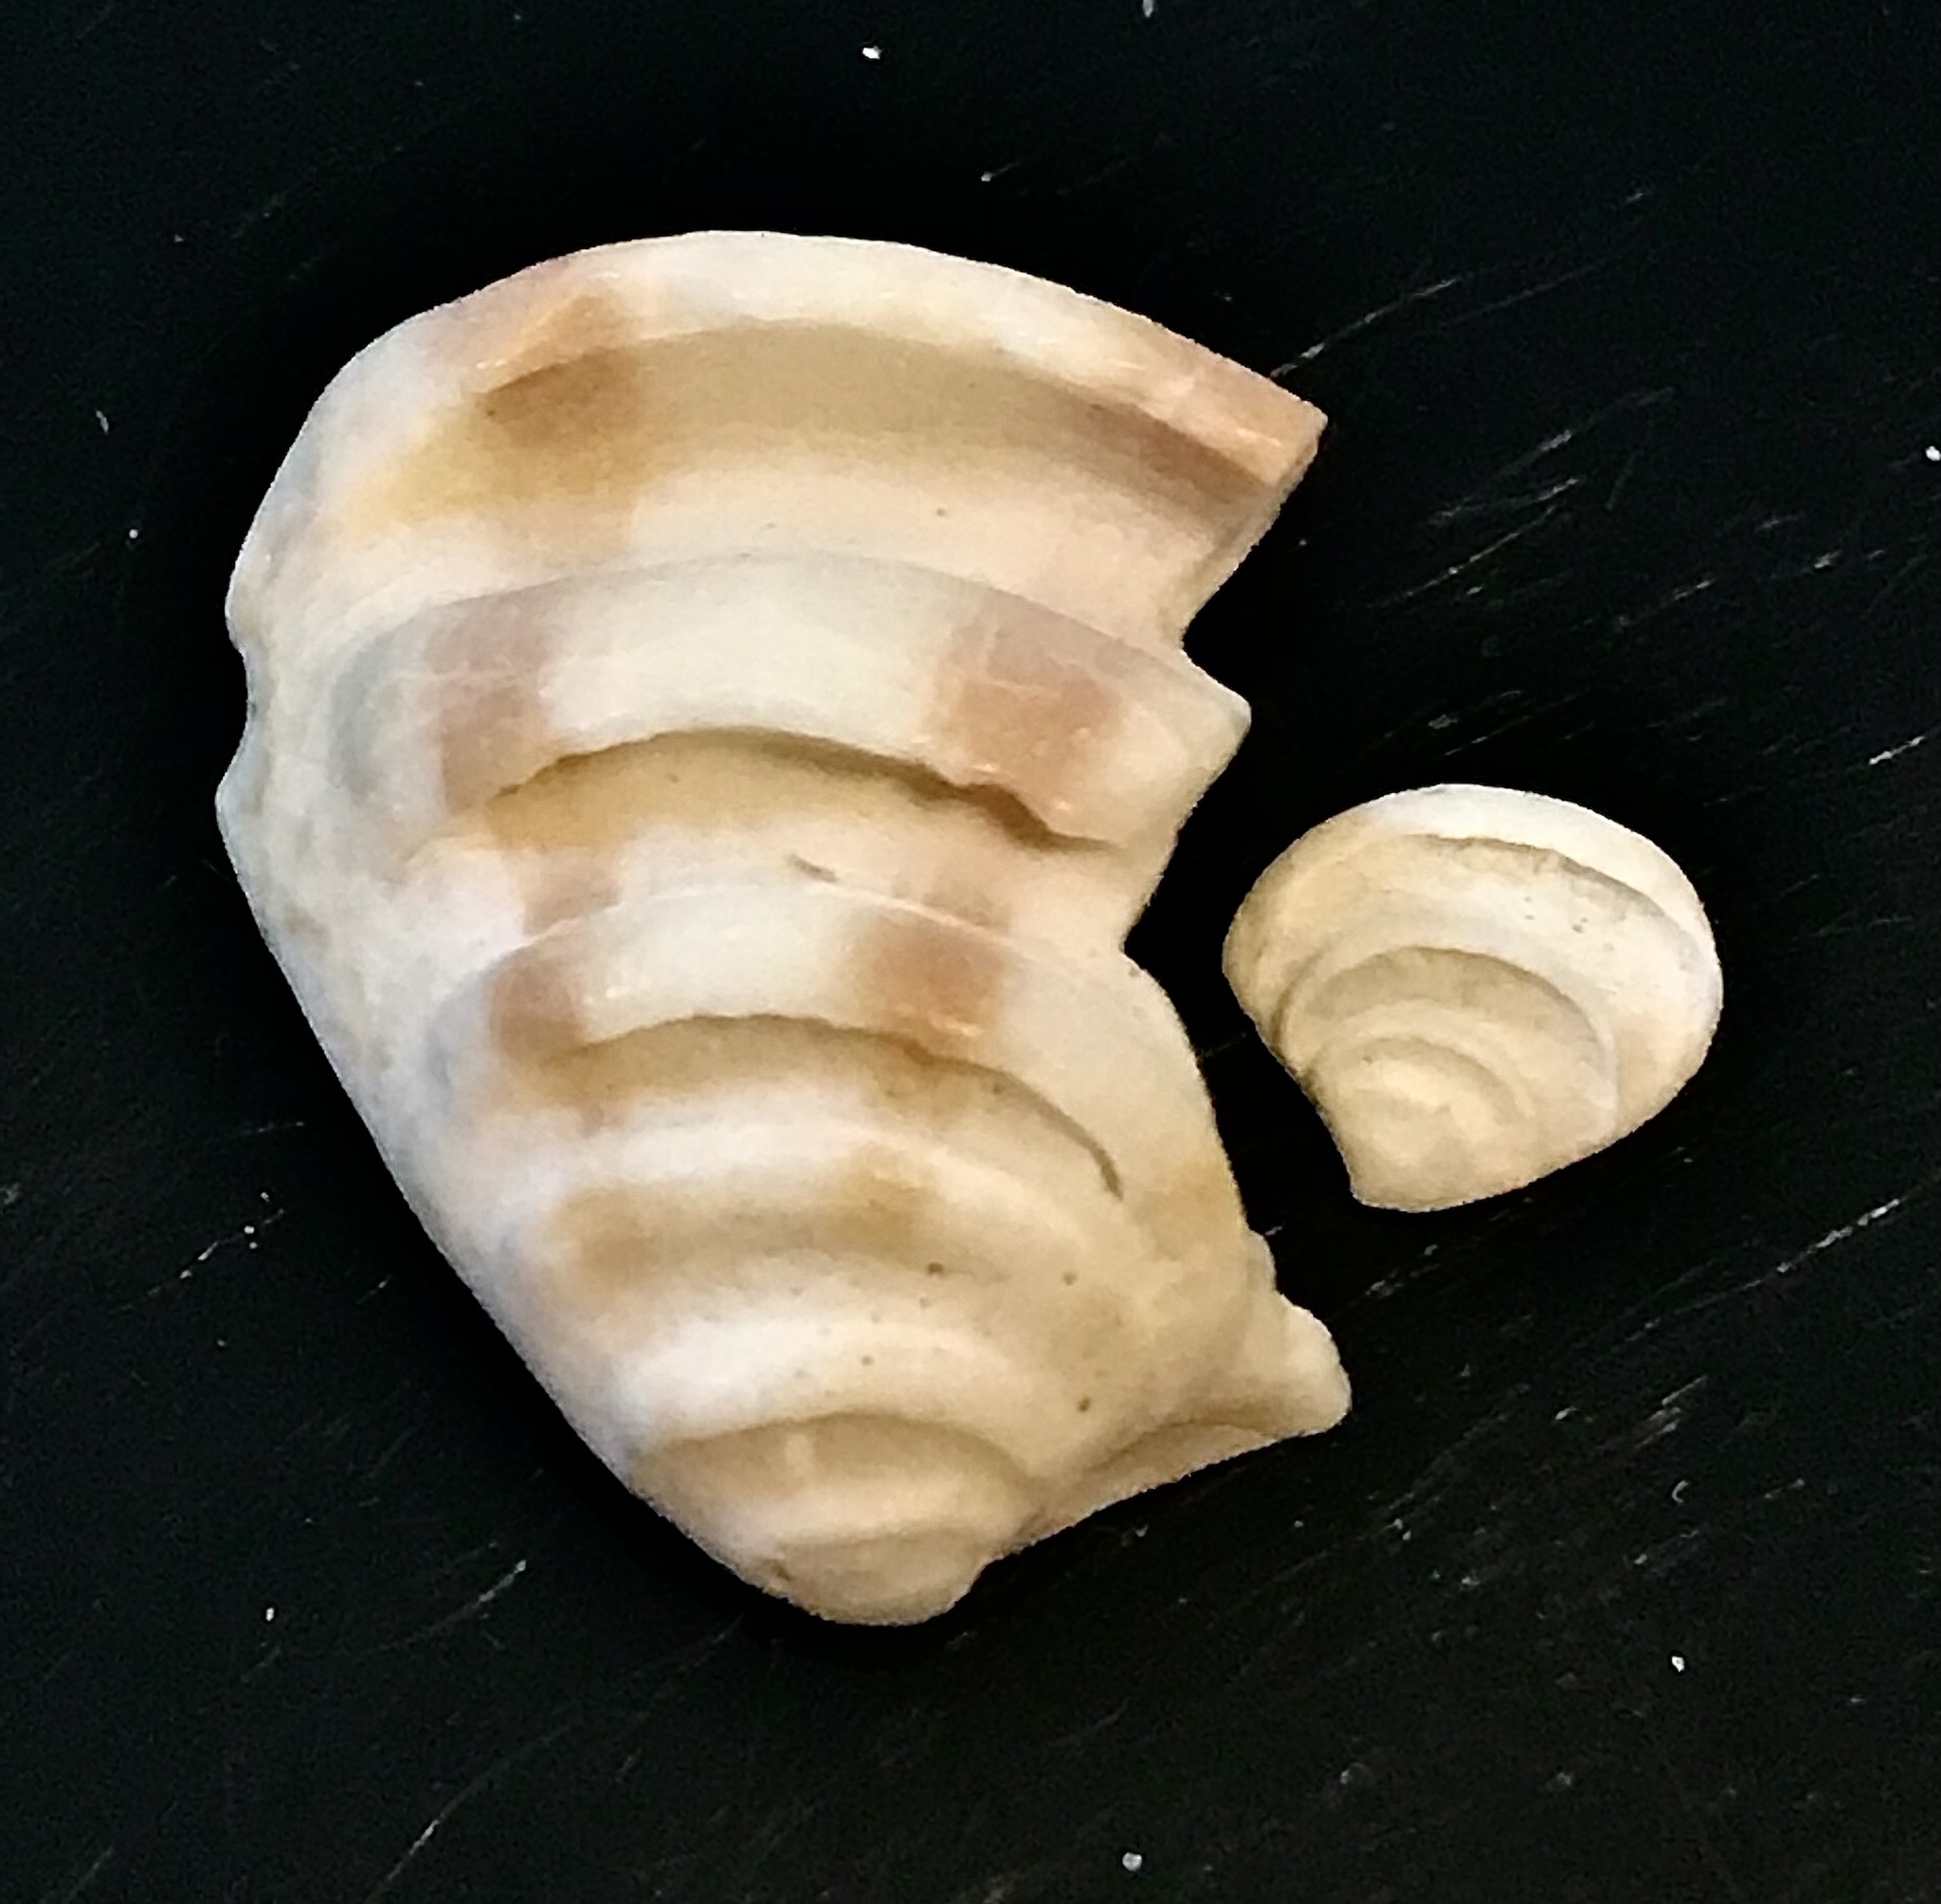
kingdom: Animalia
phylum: Mollusca
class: Bivalvia
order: Venerida
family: Veneridae
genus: Lirophora
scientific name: Lirophora varicosa
